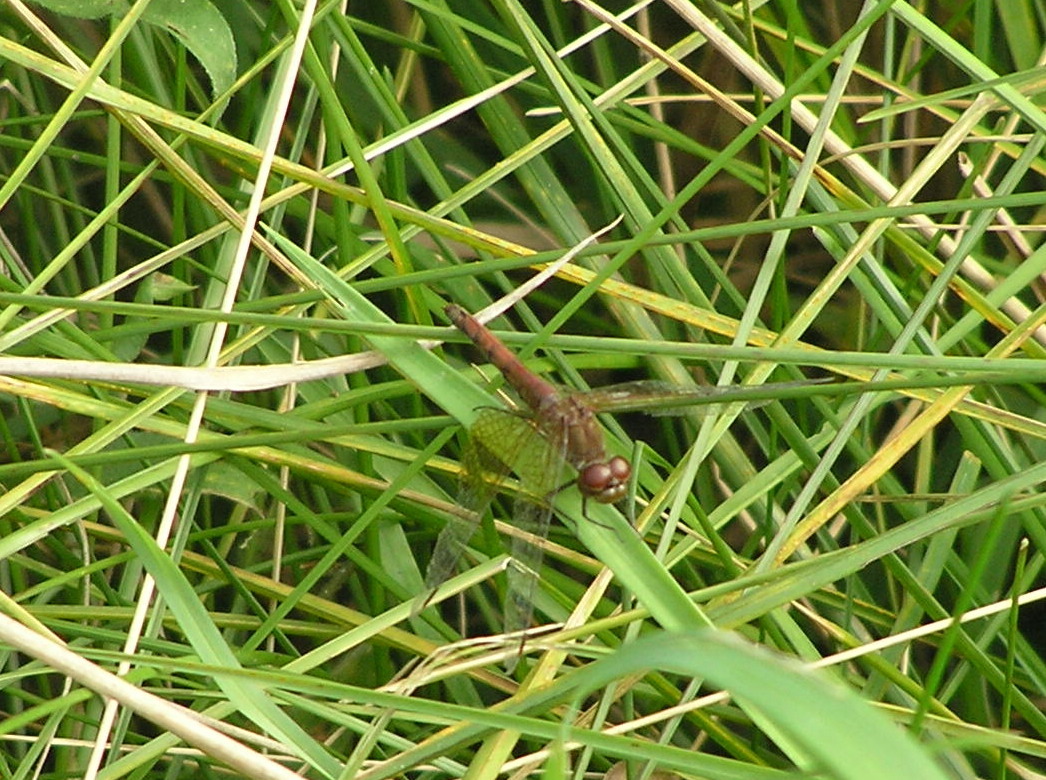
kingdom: Animalia
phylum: Arthropoda
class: Insecta
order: Odonata
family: Libellulidae
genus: Sympetrum
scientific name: Sympetrum semicinctum
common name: Band-winged meadowhawk
